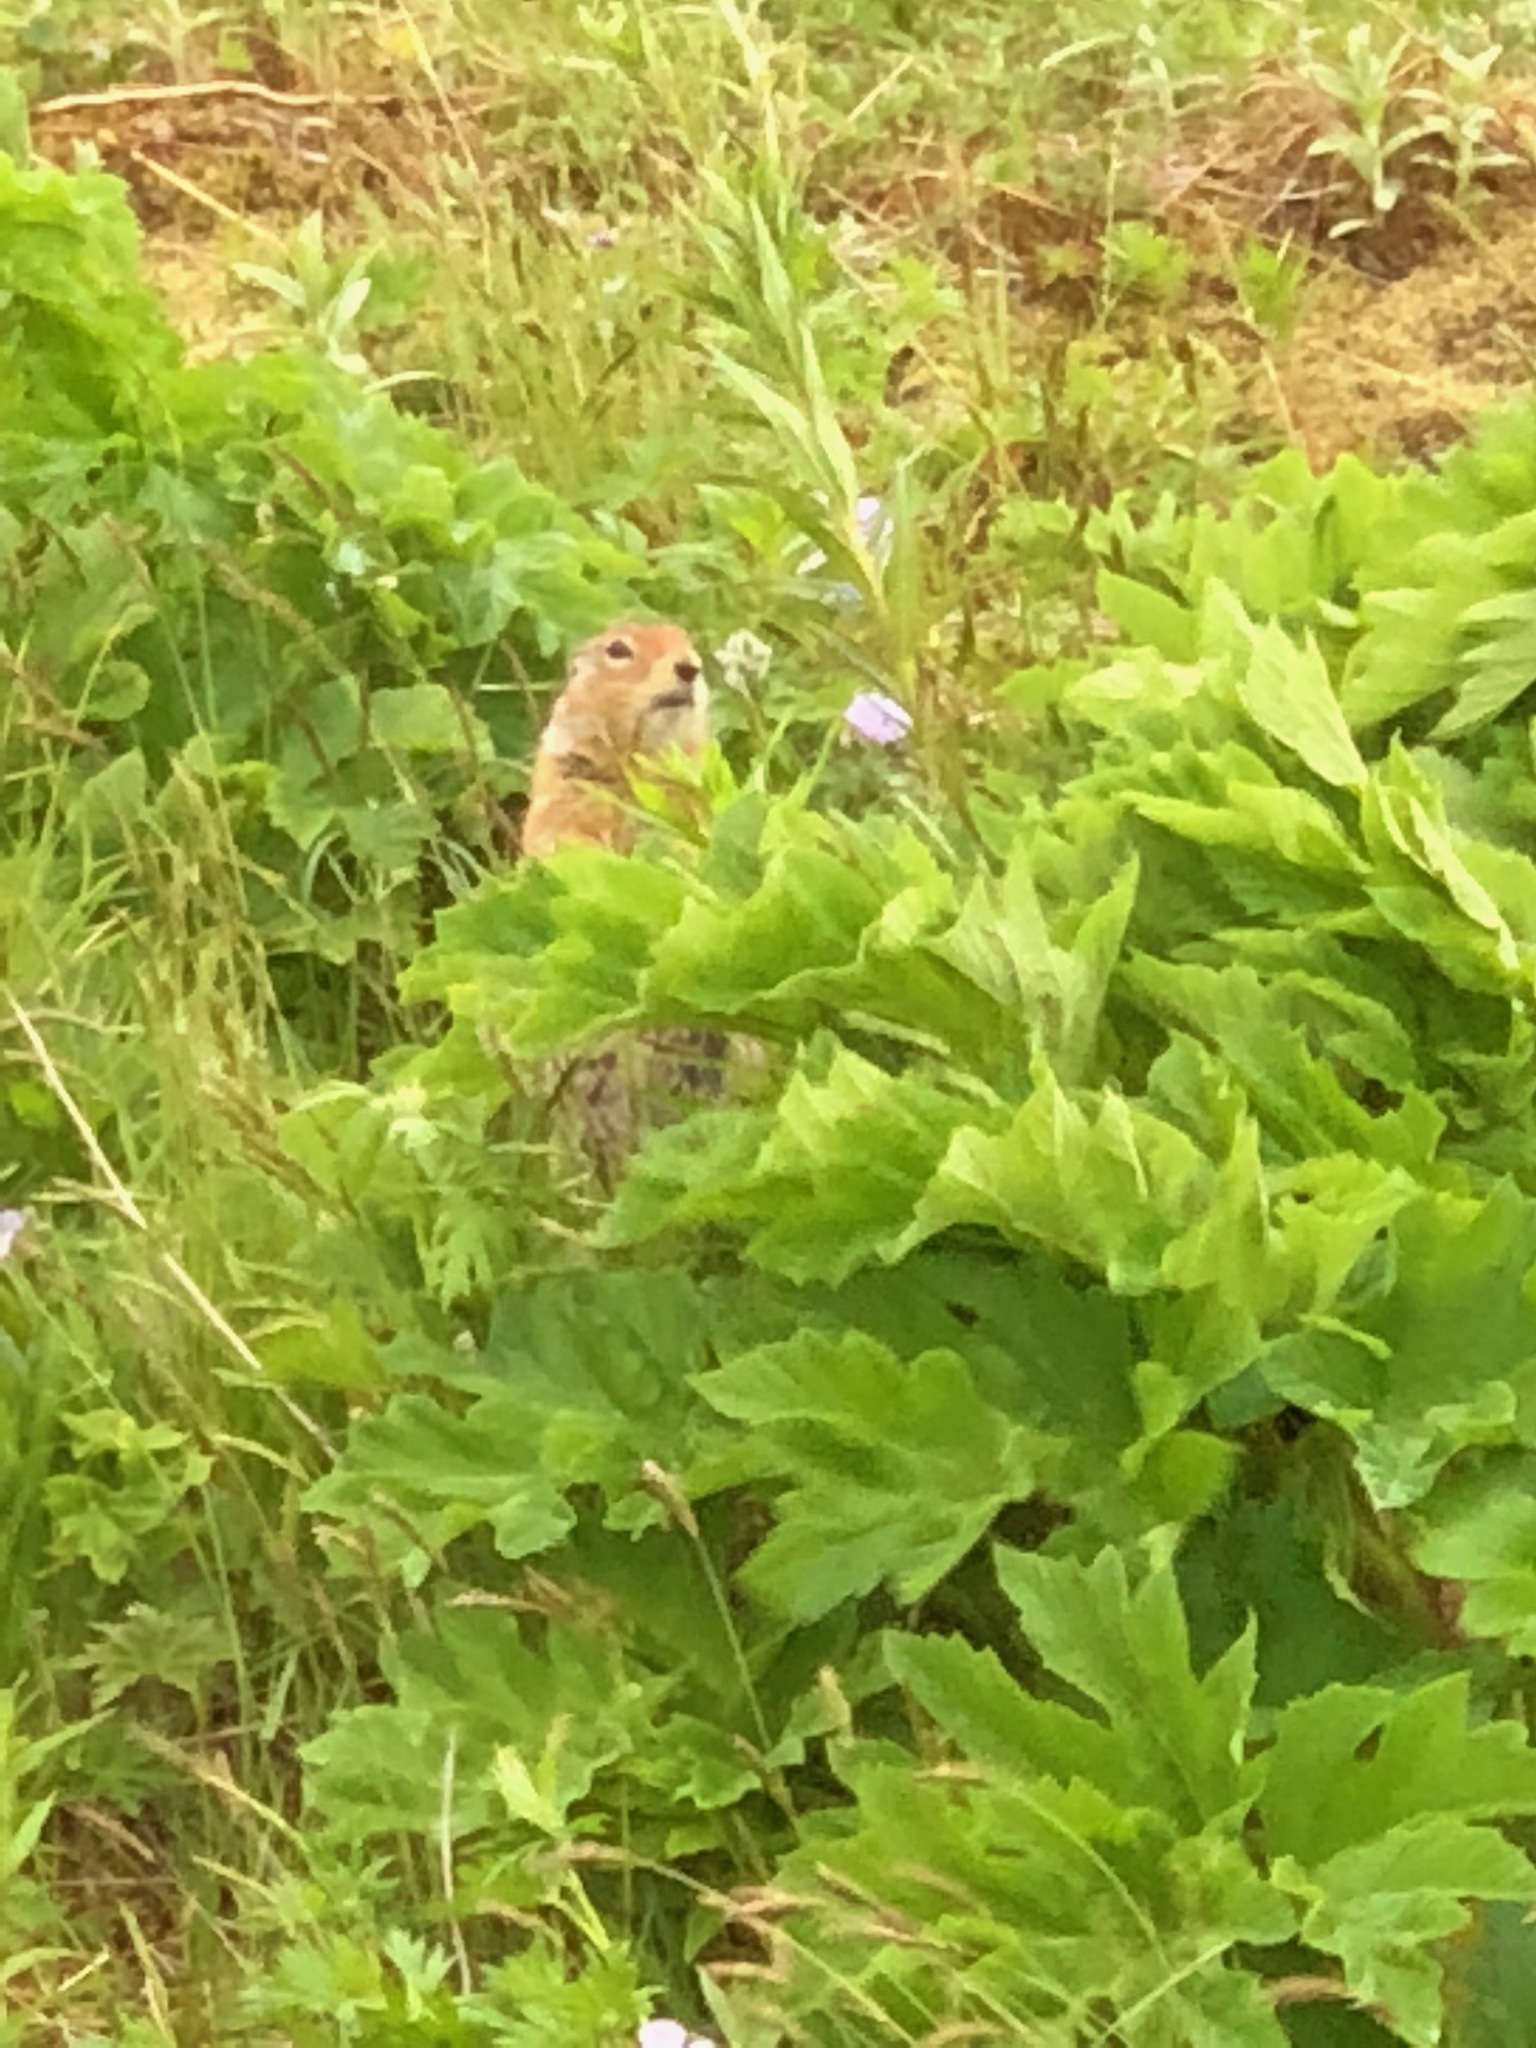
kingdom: Animalia
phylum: Chordata
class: Mammalia
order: Rodentia
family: Sciuridae
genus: Urocitellus
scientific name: Urocitellus parryii
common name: Arctic ground squirrel
